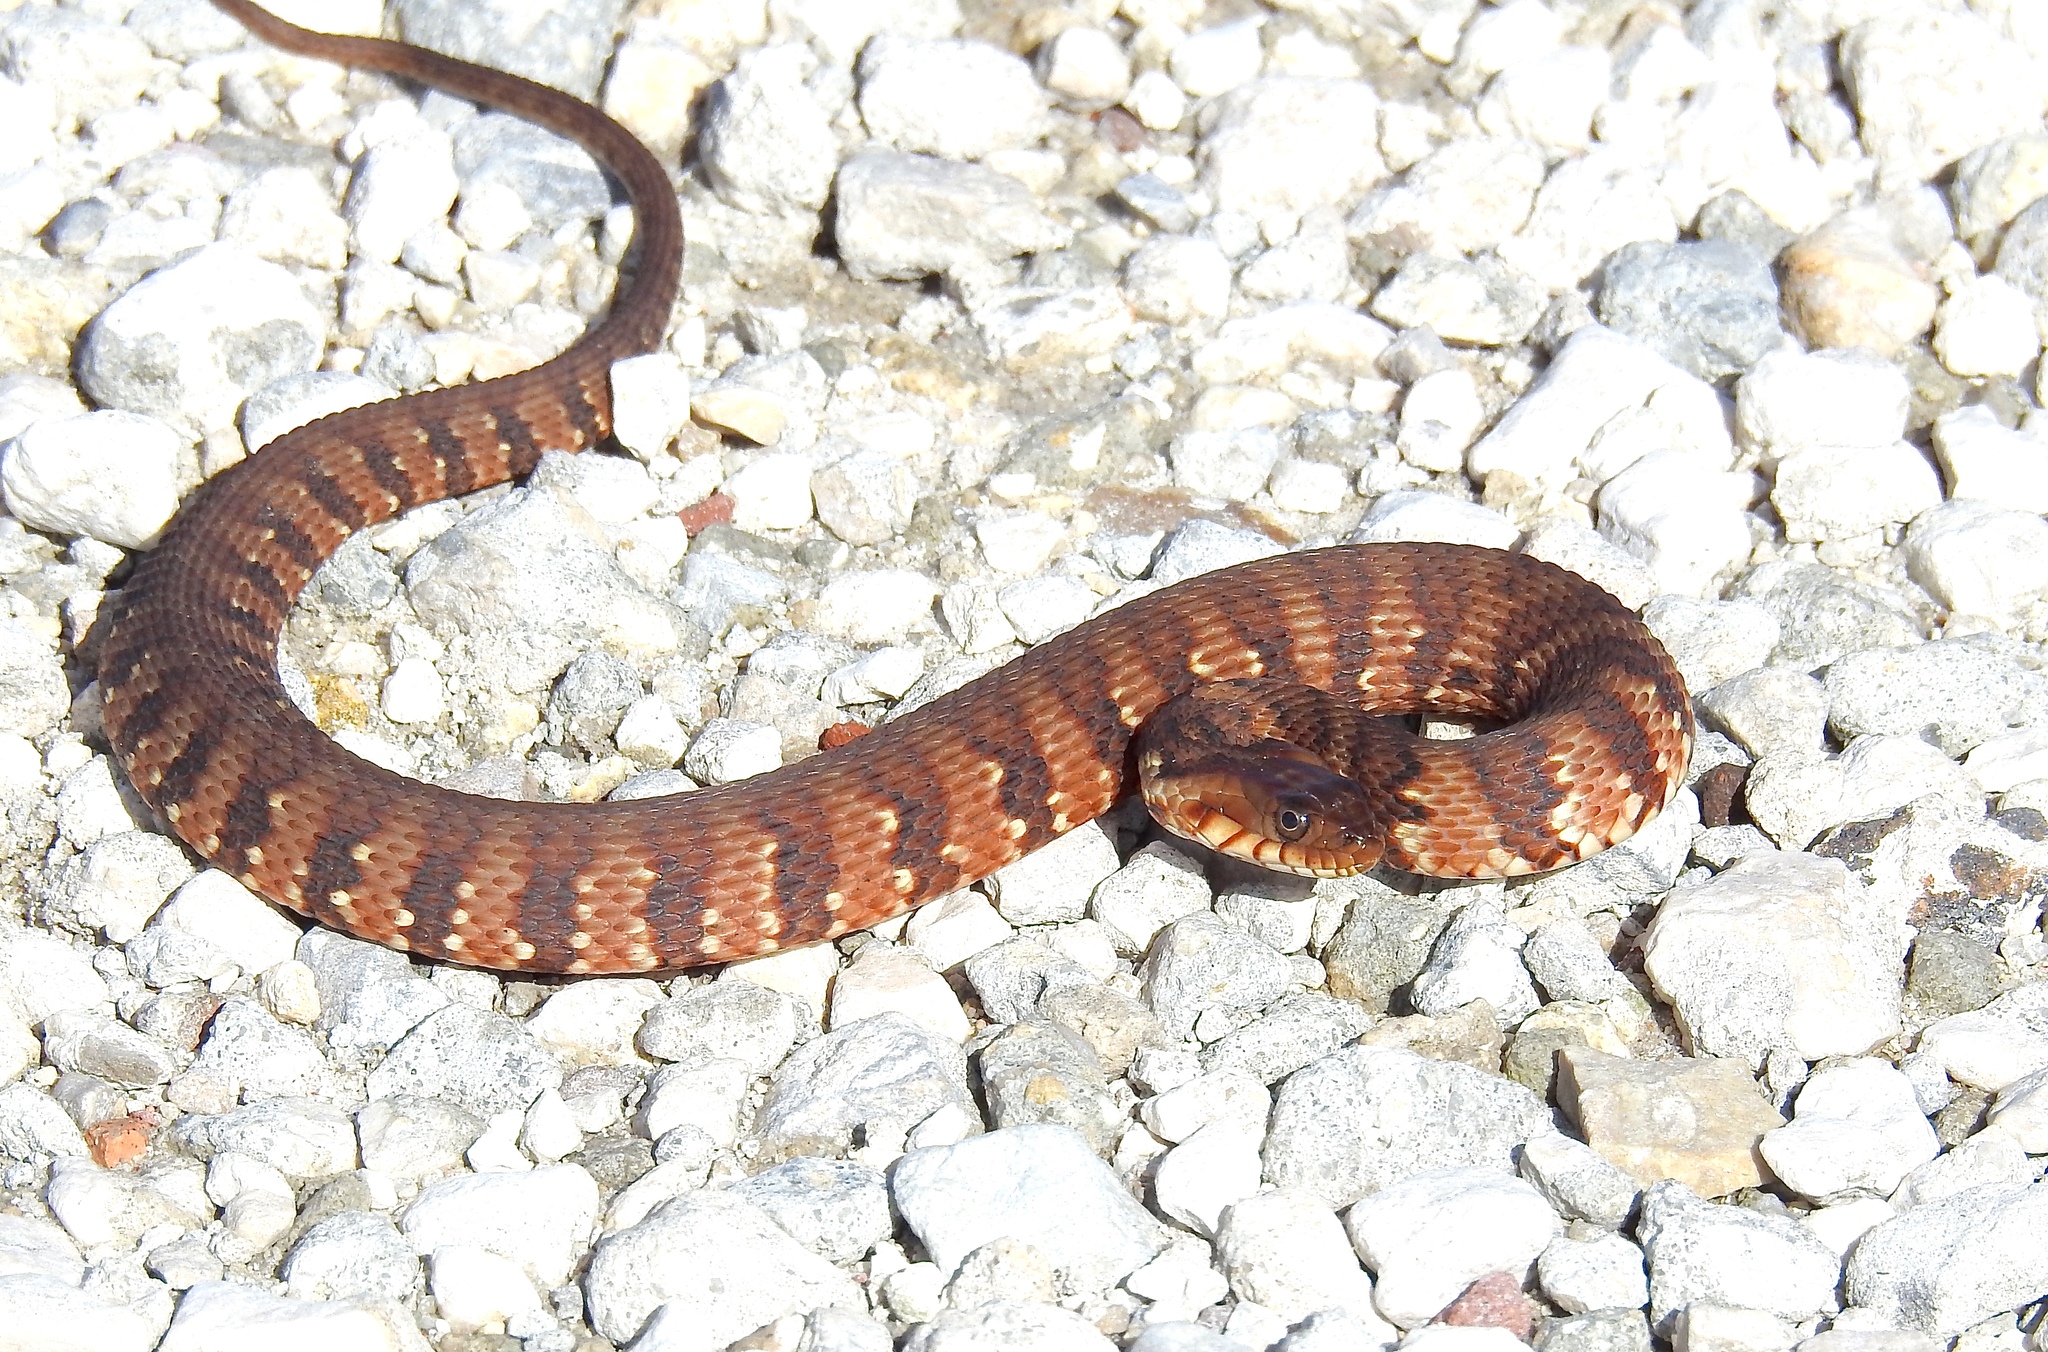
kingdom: Animalia
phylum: Chordata
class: Squamata
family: Colubridae
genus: Nerodia
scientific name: Nerodia fasciata
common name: Southern water snake
